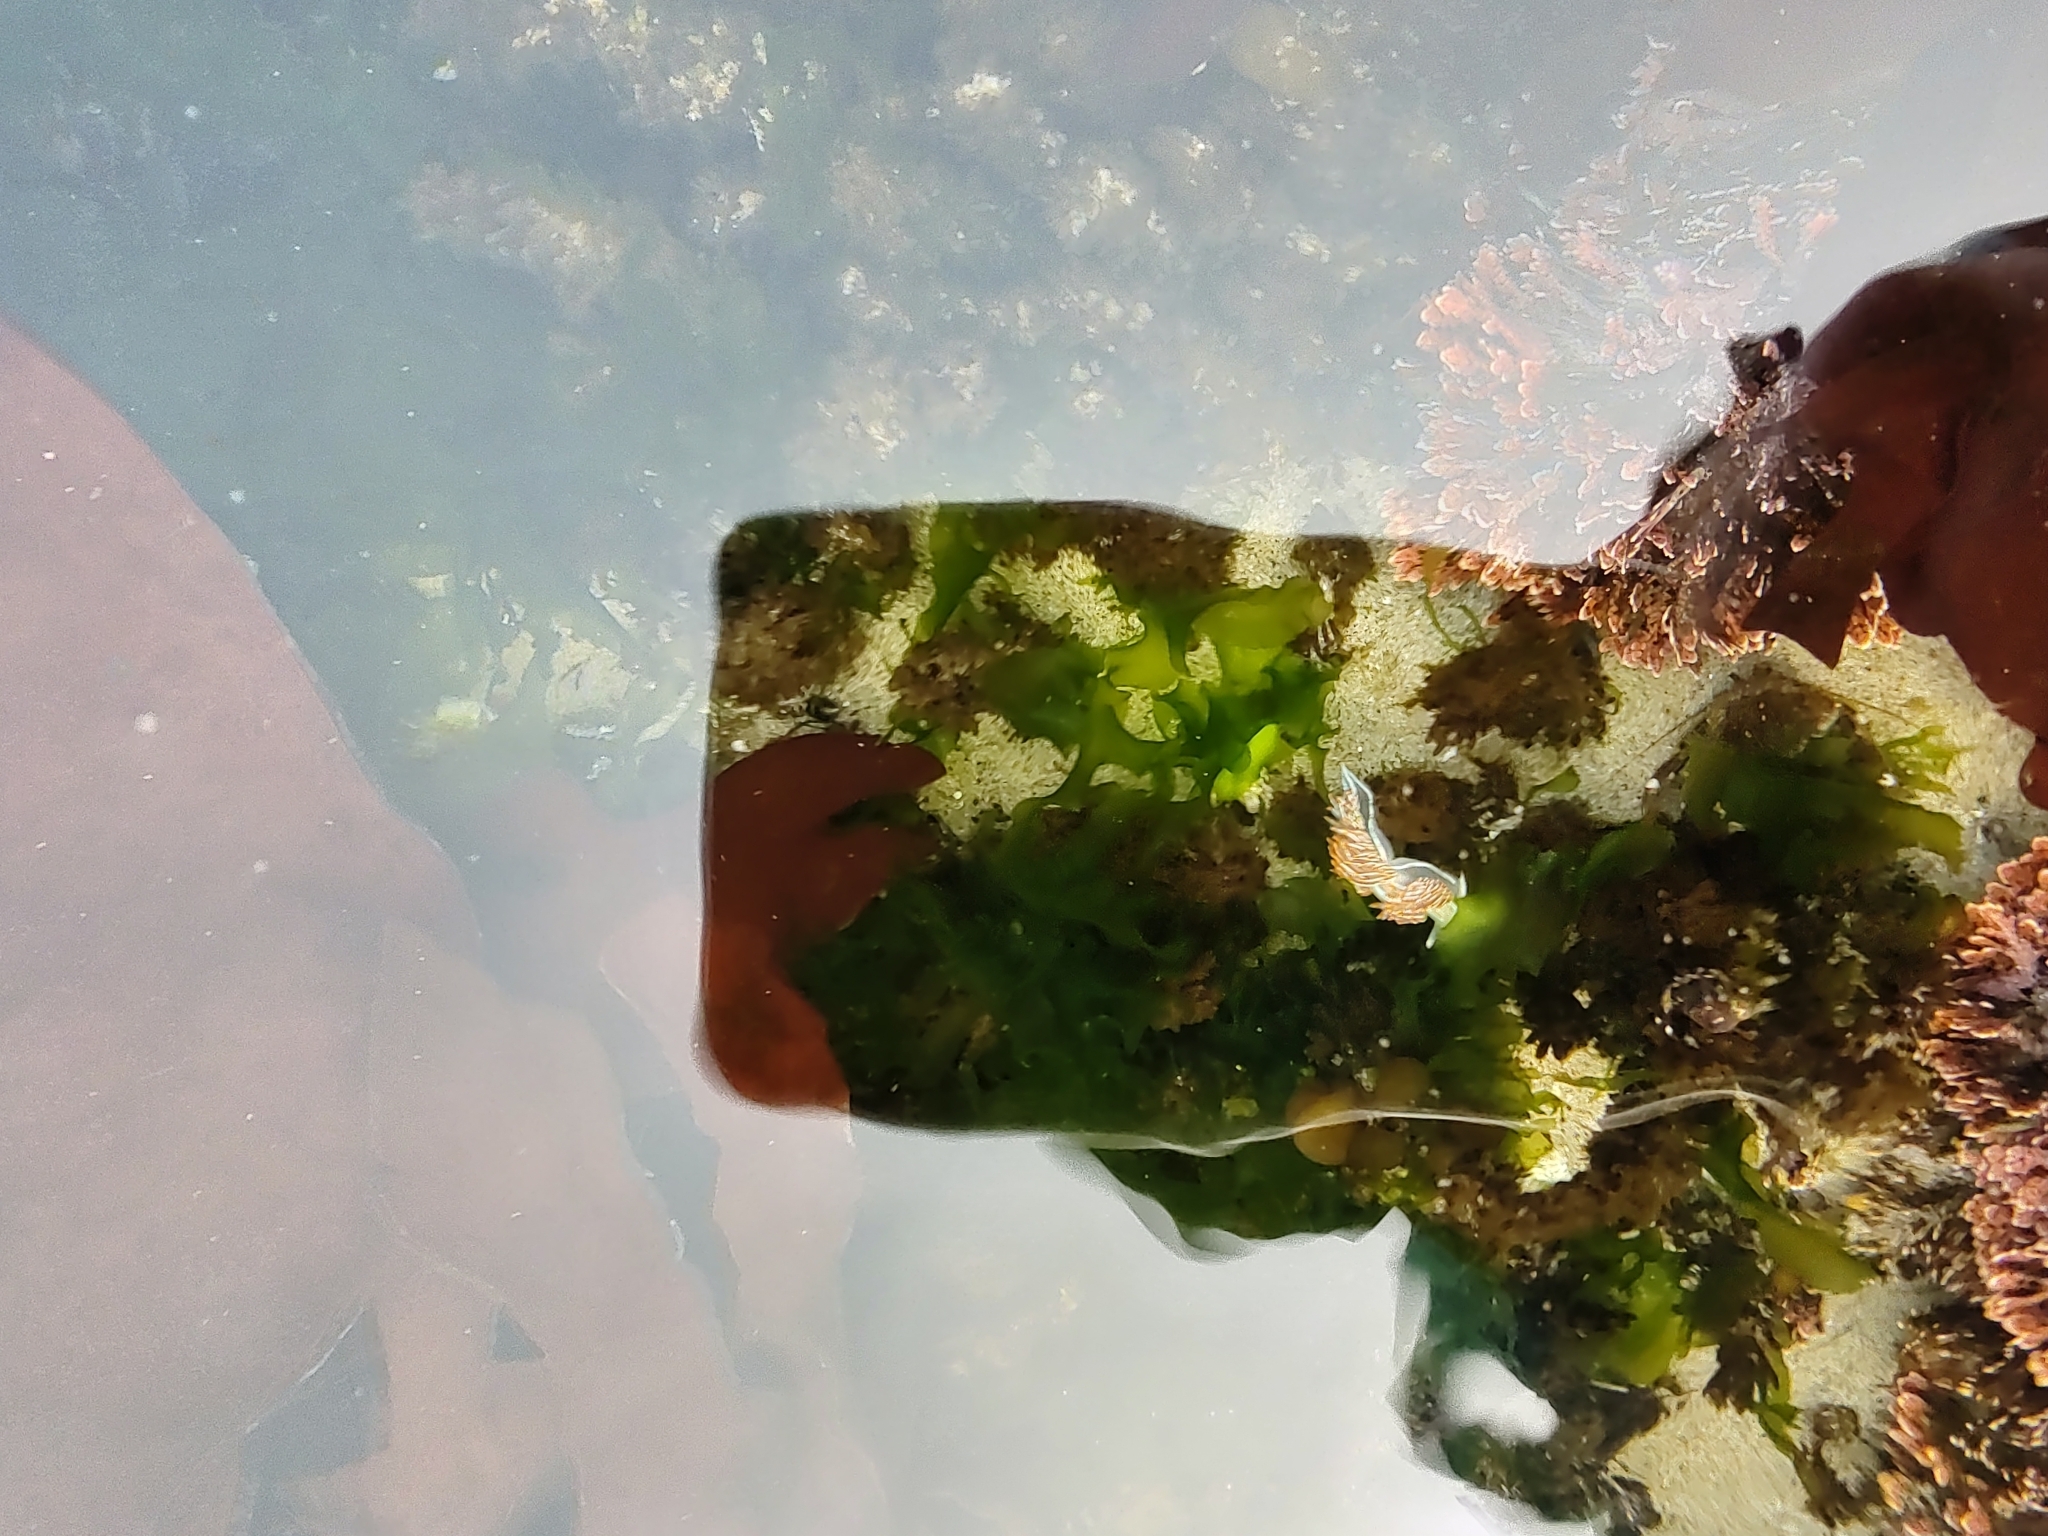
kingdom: Animalia
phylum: Mollusca
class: Gastropoda
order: Nudibranchia
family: Myrrhinidae
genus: Hermissenda
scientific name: Hermissenda crassicornis
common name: Hermissenda
